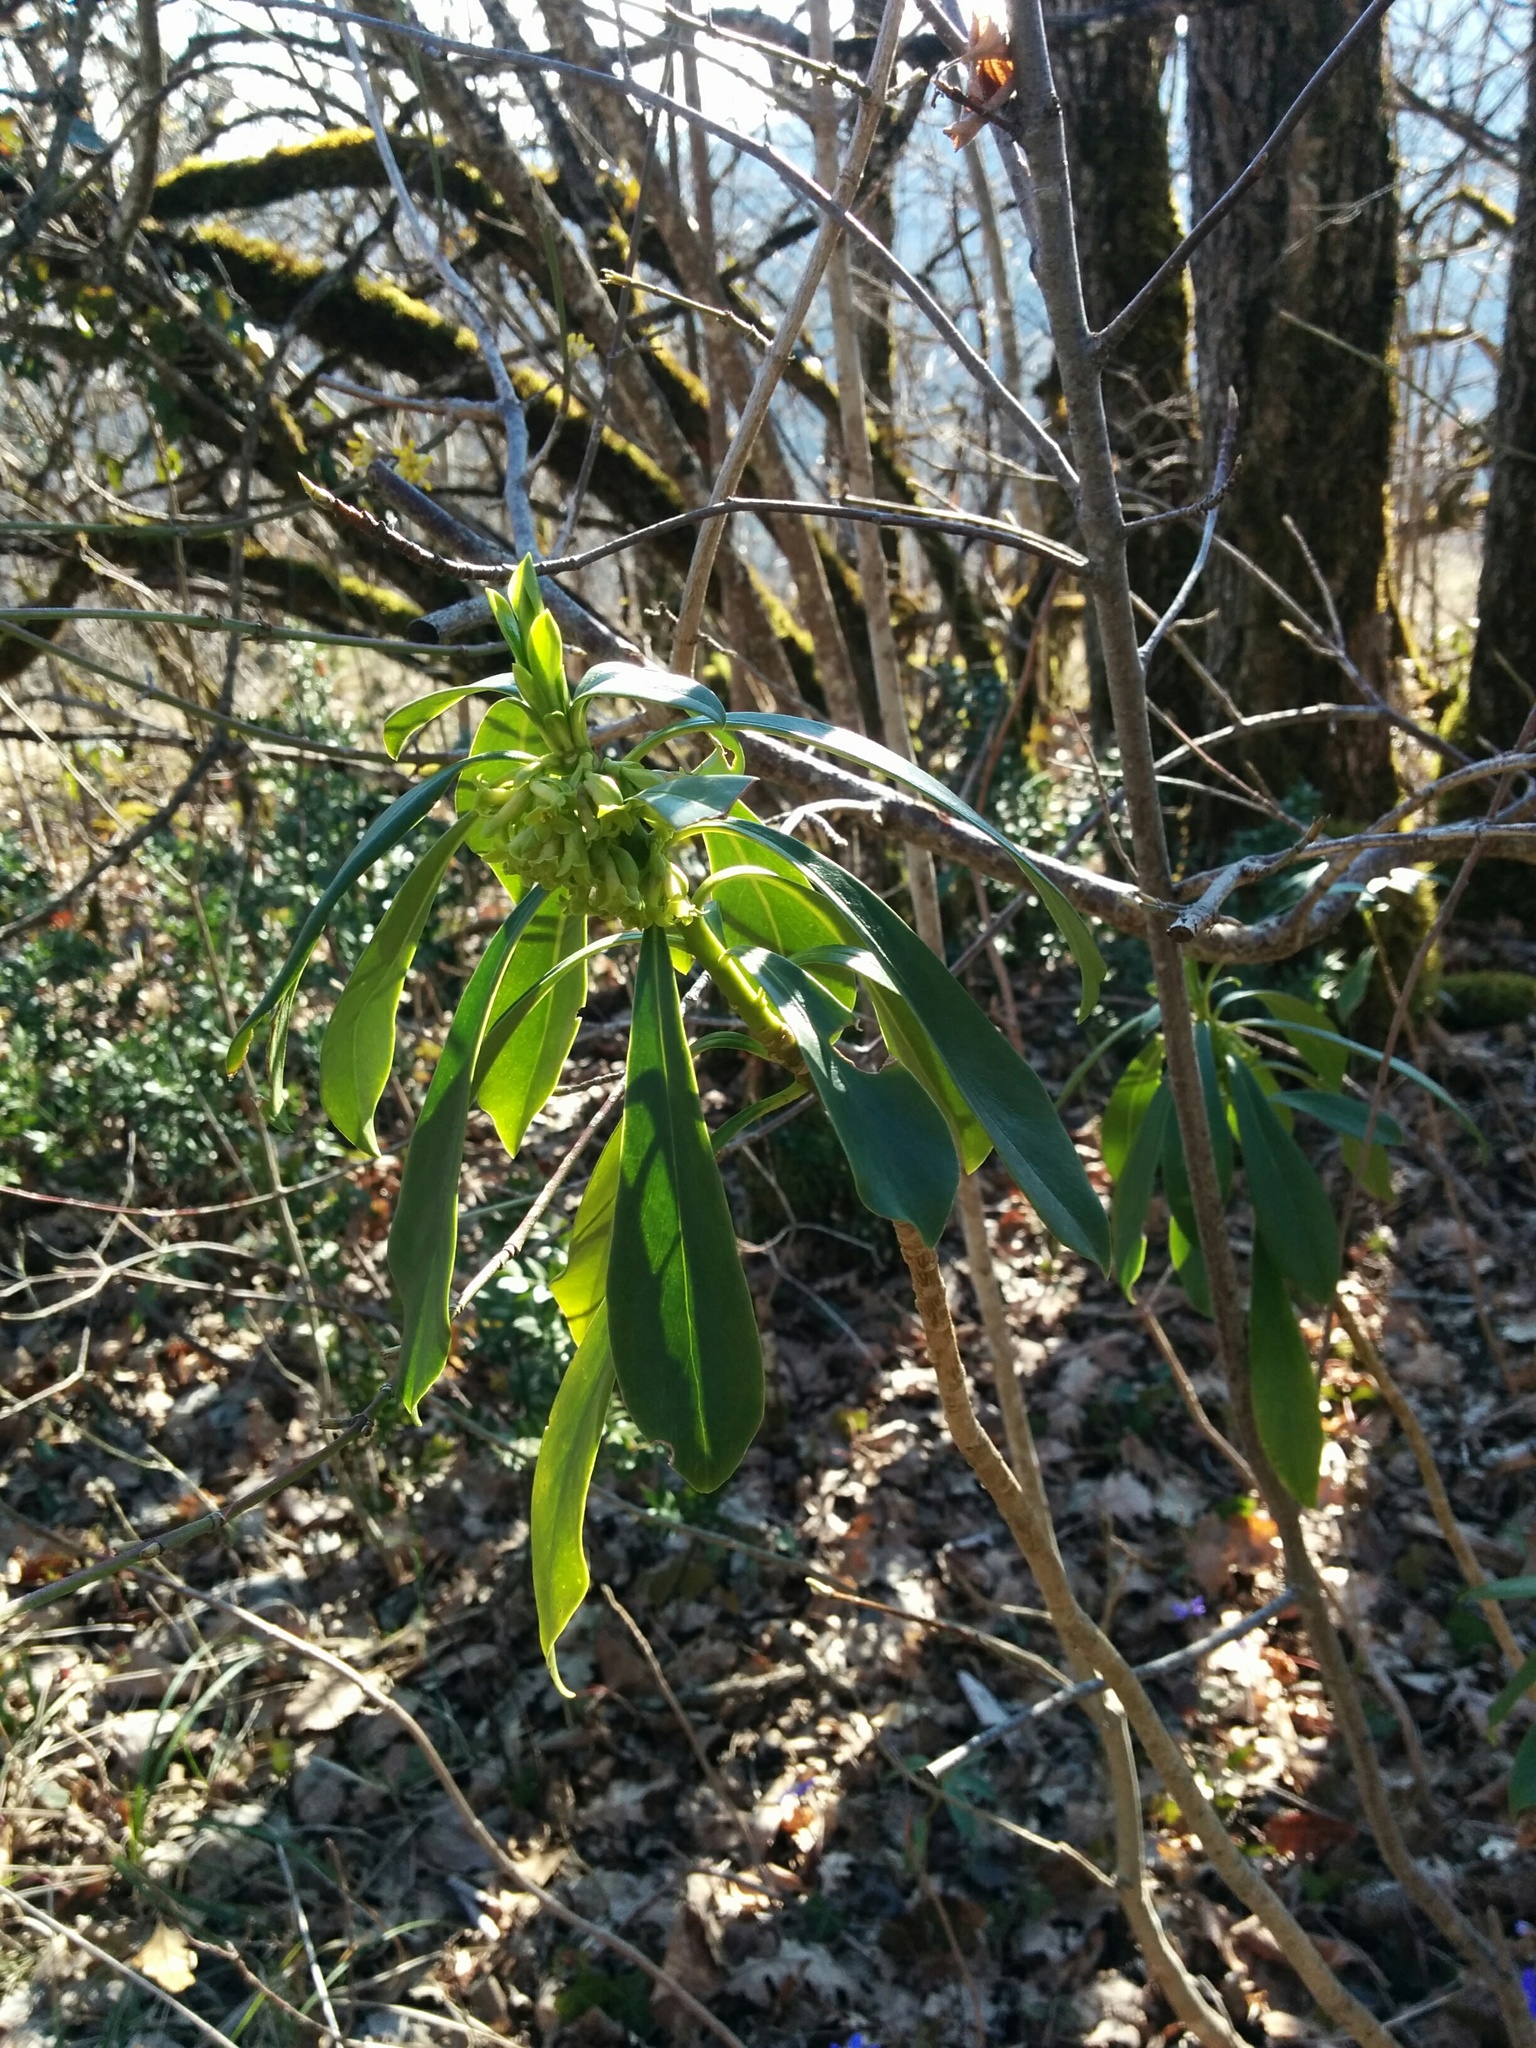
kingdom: Plantae
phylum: Tracheophyta
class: Magnoliopsida
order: Malvales
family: Thymelaeaceae
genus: Daphne
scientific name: Daphne laureola
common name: Spurge-laurel
